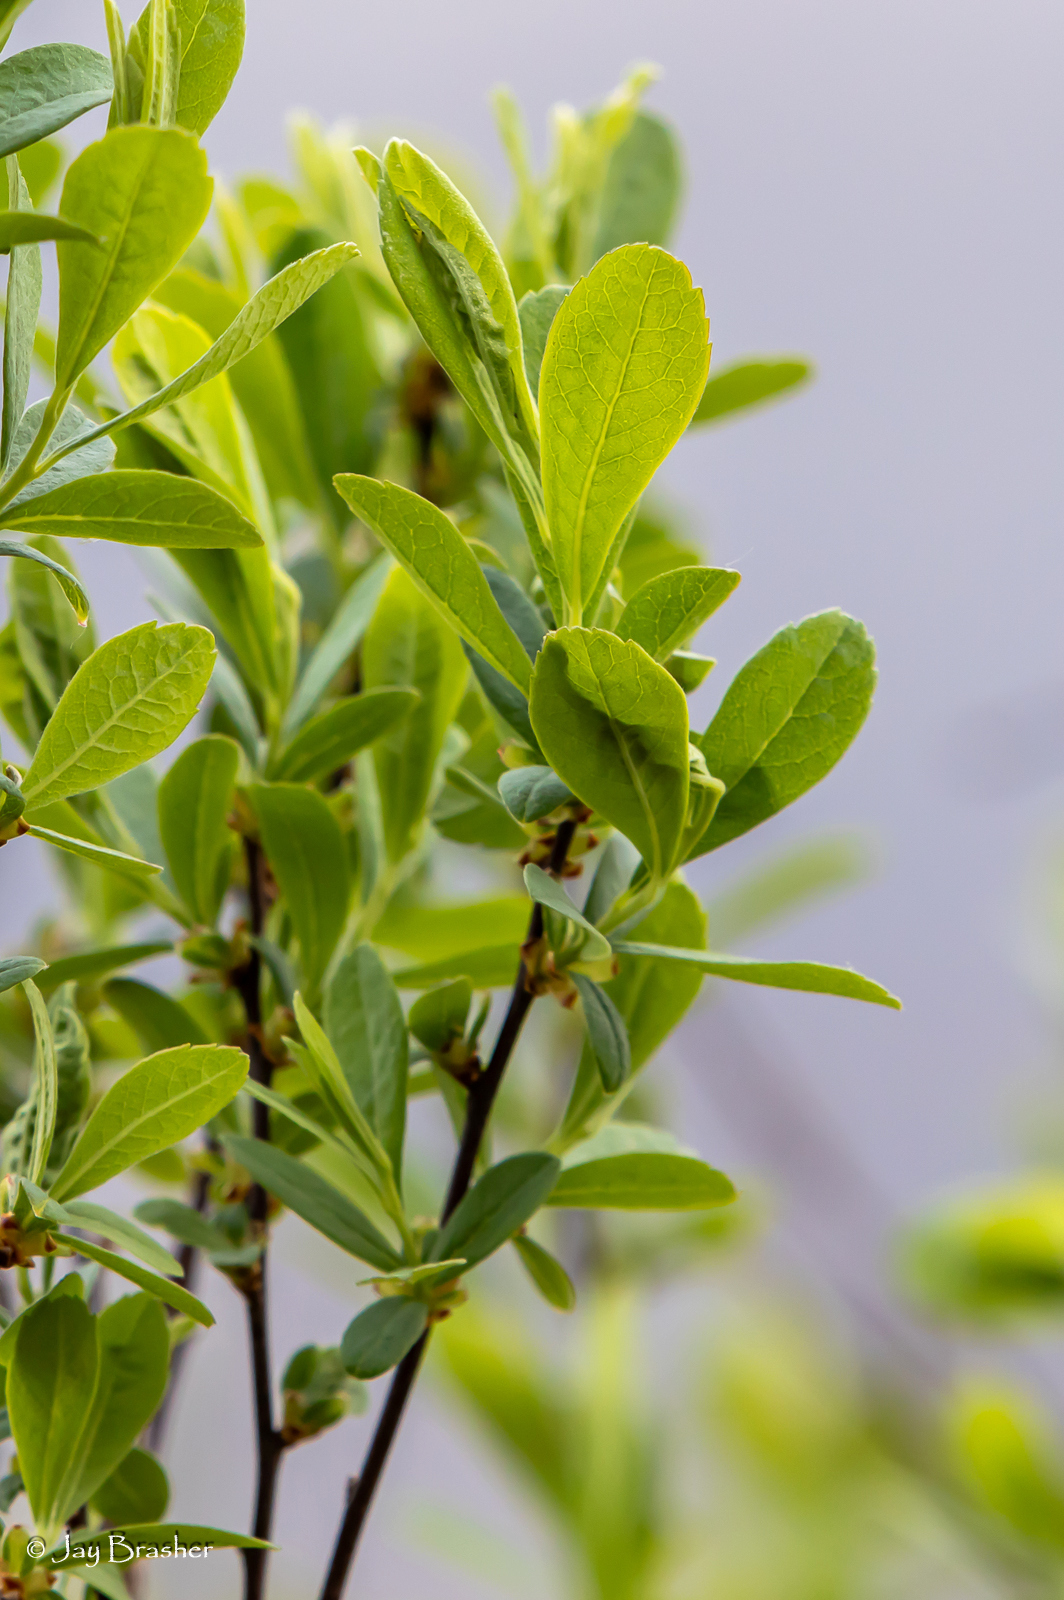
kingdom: Plantae
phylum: Tracheophyta
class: Magnoliopsida
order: Fagales
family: Myricaceae
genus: Myrica
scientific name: Myrica gale
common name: Sweet gale
